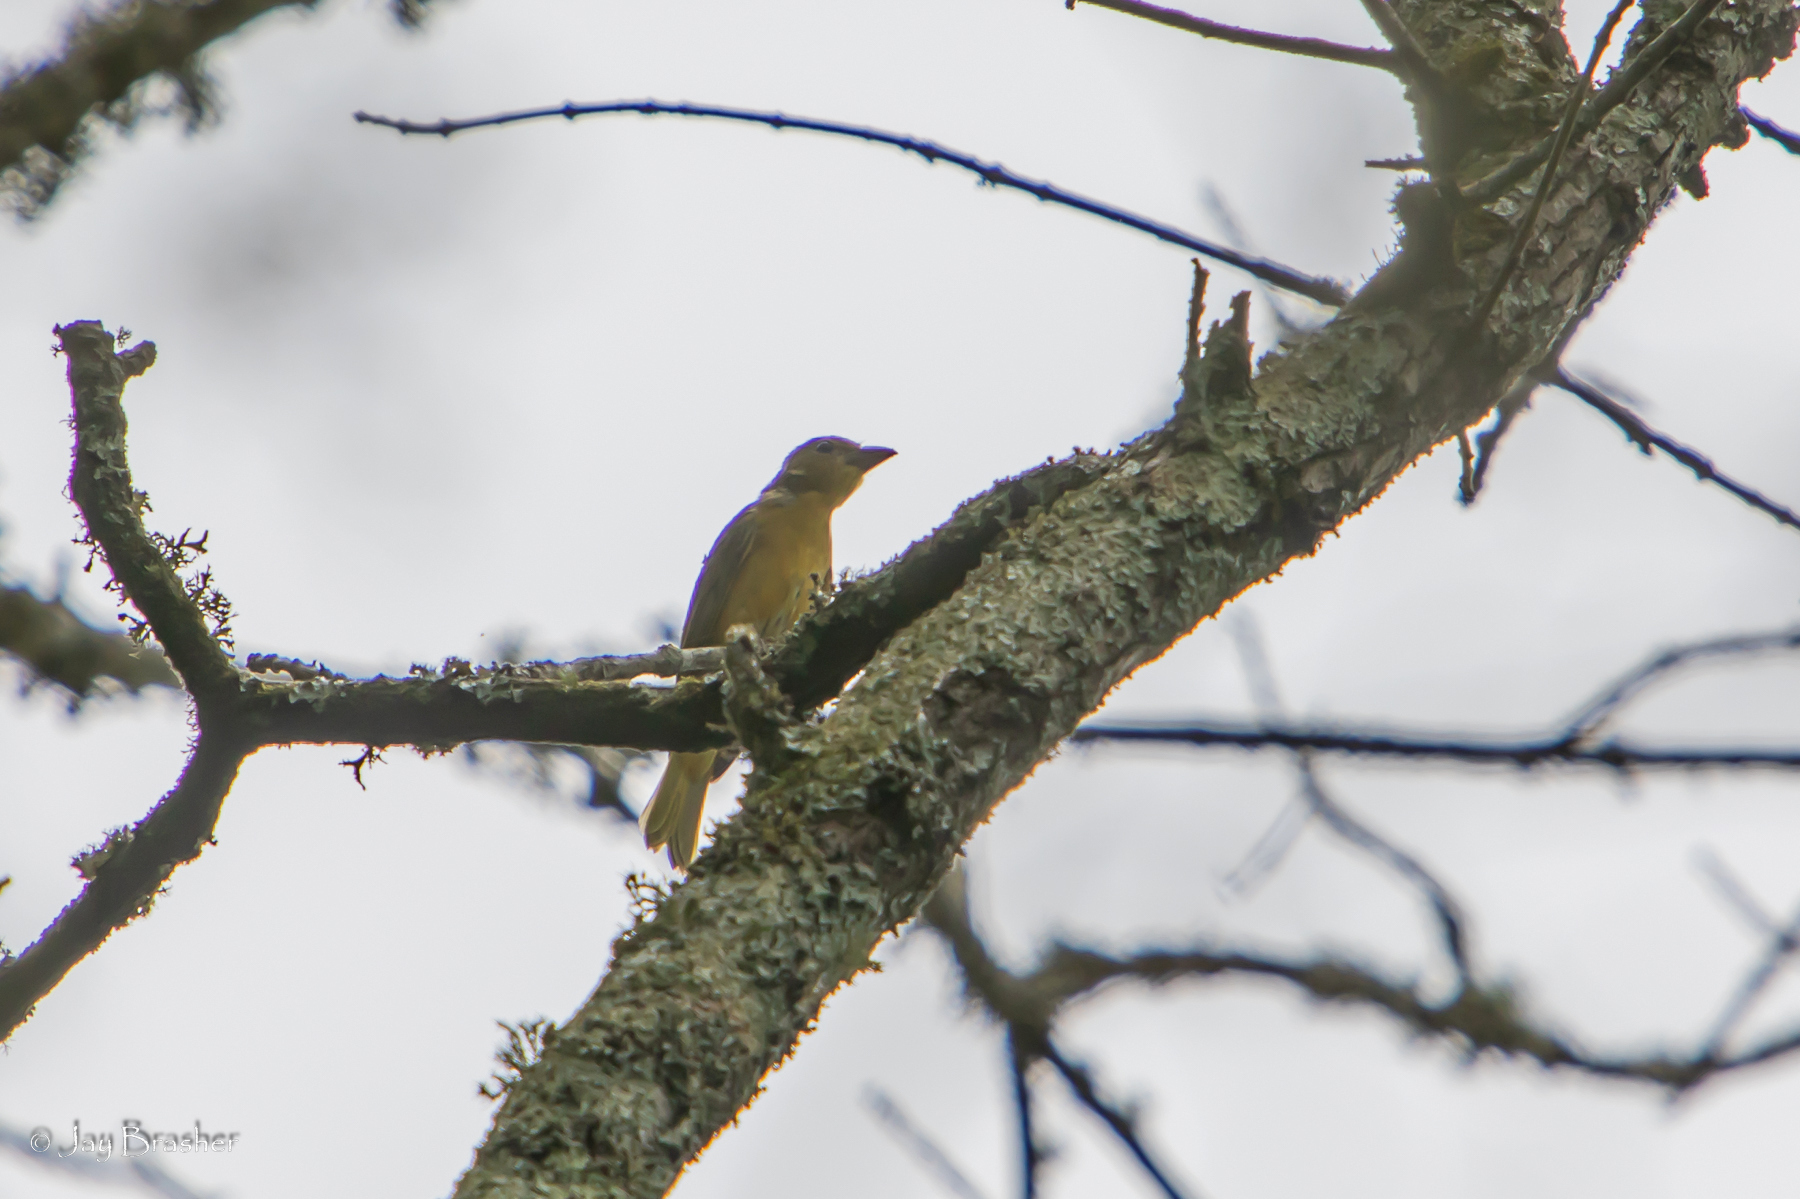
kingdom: Animalia
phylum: Chordata
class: Aves
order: Passeriformes
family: Cardinalidae
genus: Piranga
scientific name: Piranga rubra
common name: Summer tanager
